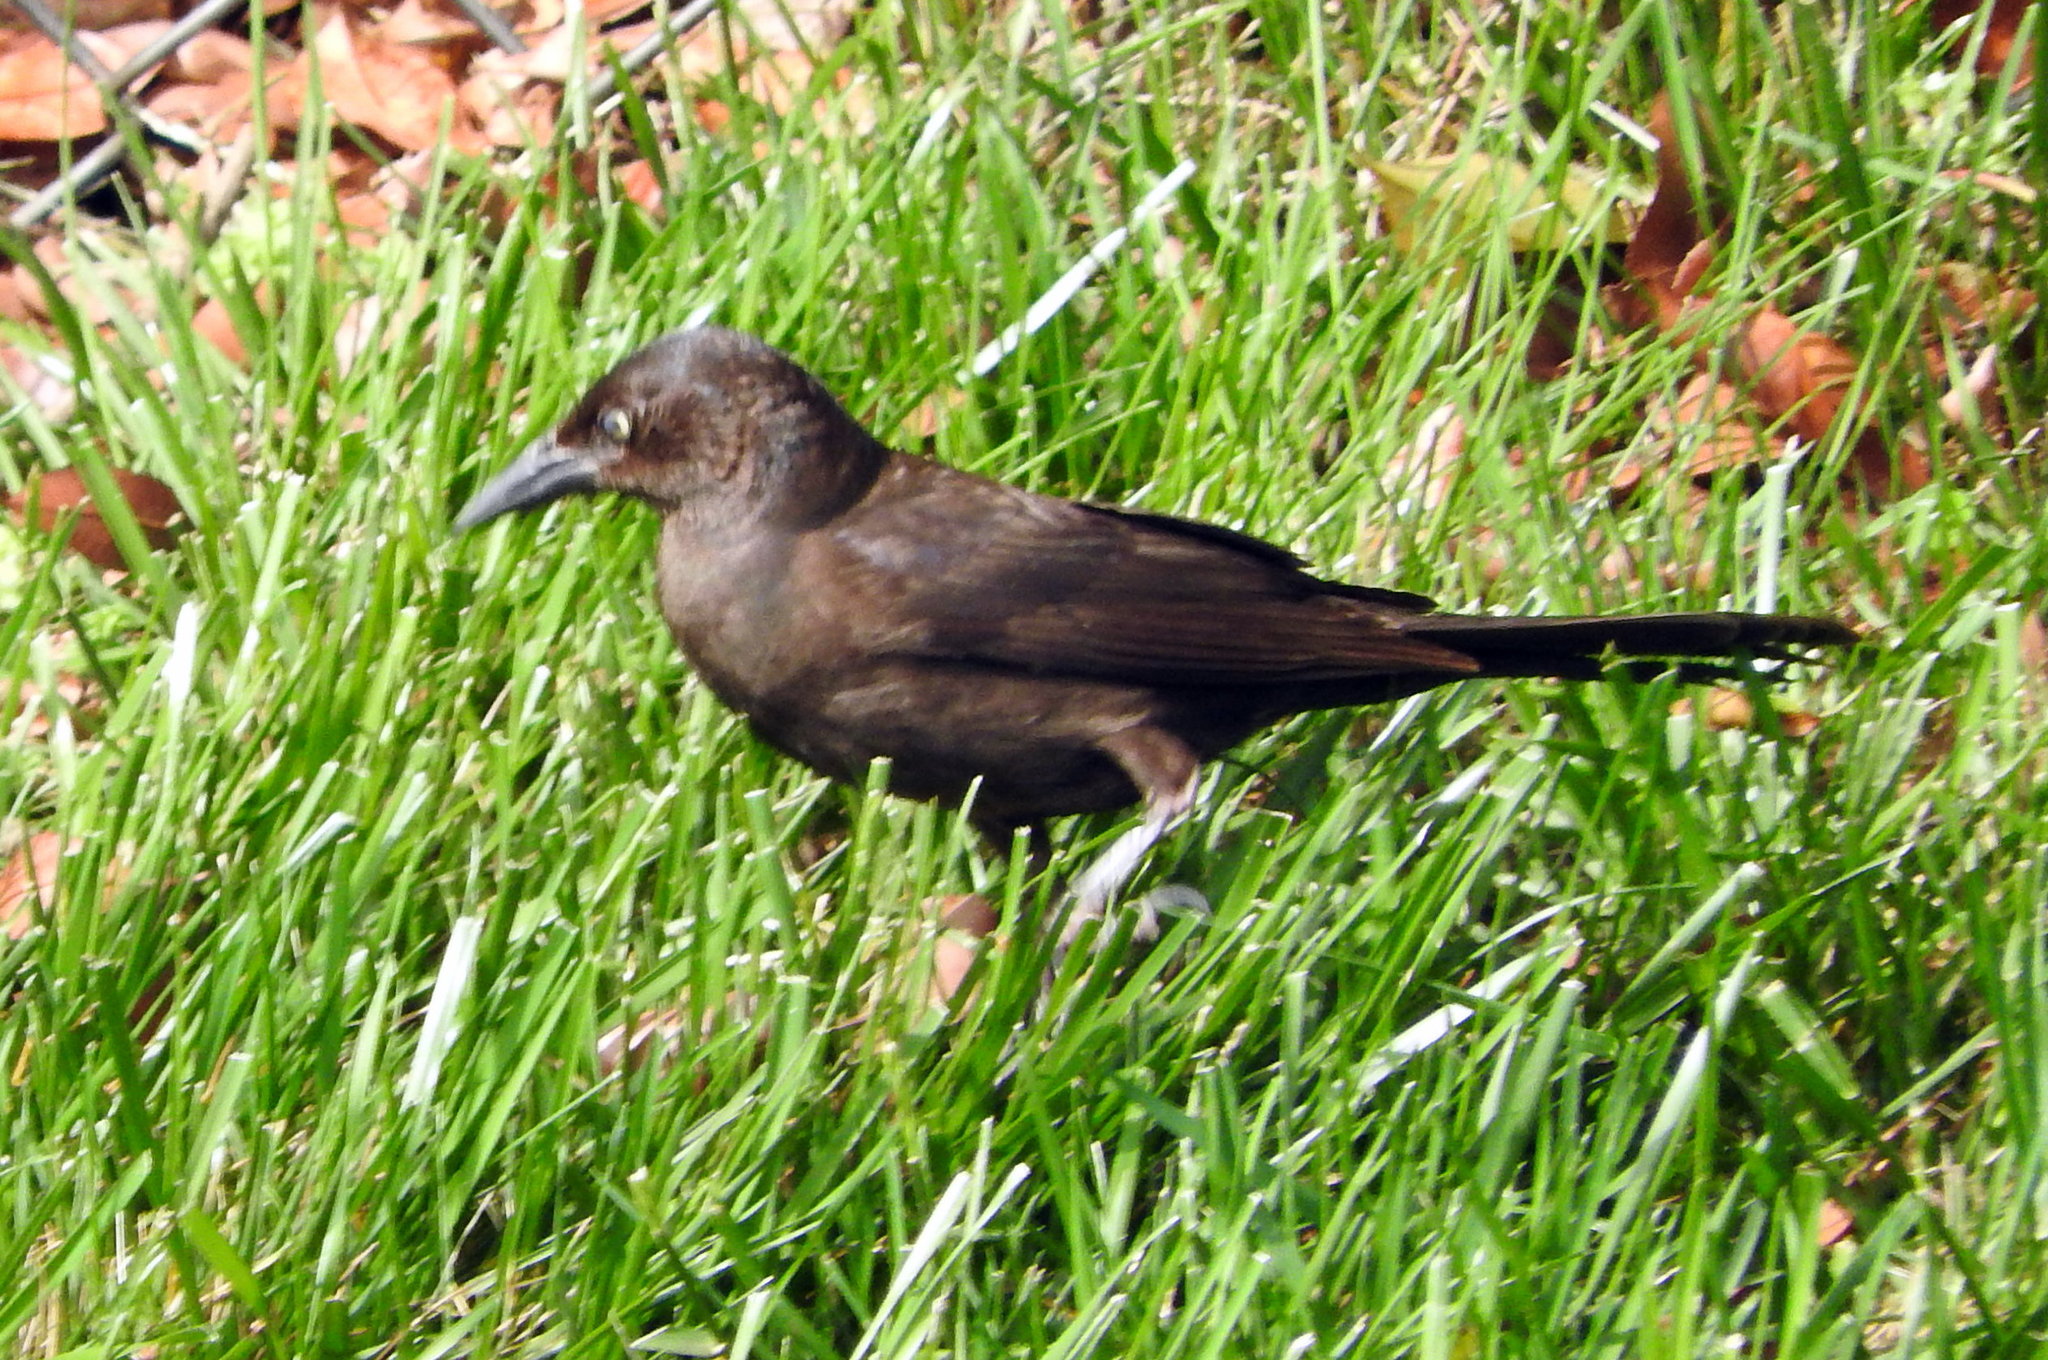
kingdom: Animalia
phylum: Chordata
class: Aves
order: Passeriformes
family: Icteridae
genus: Quiscalus
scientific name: Quiscalus quiscula
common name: Common grackle
